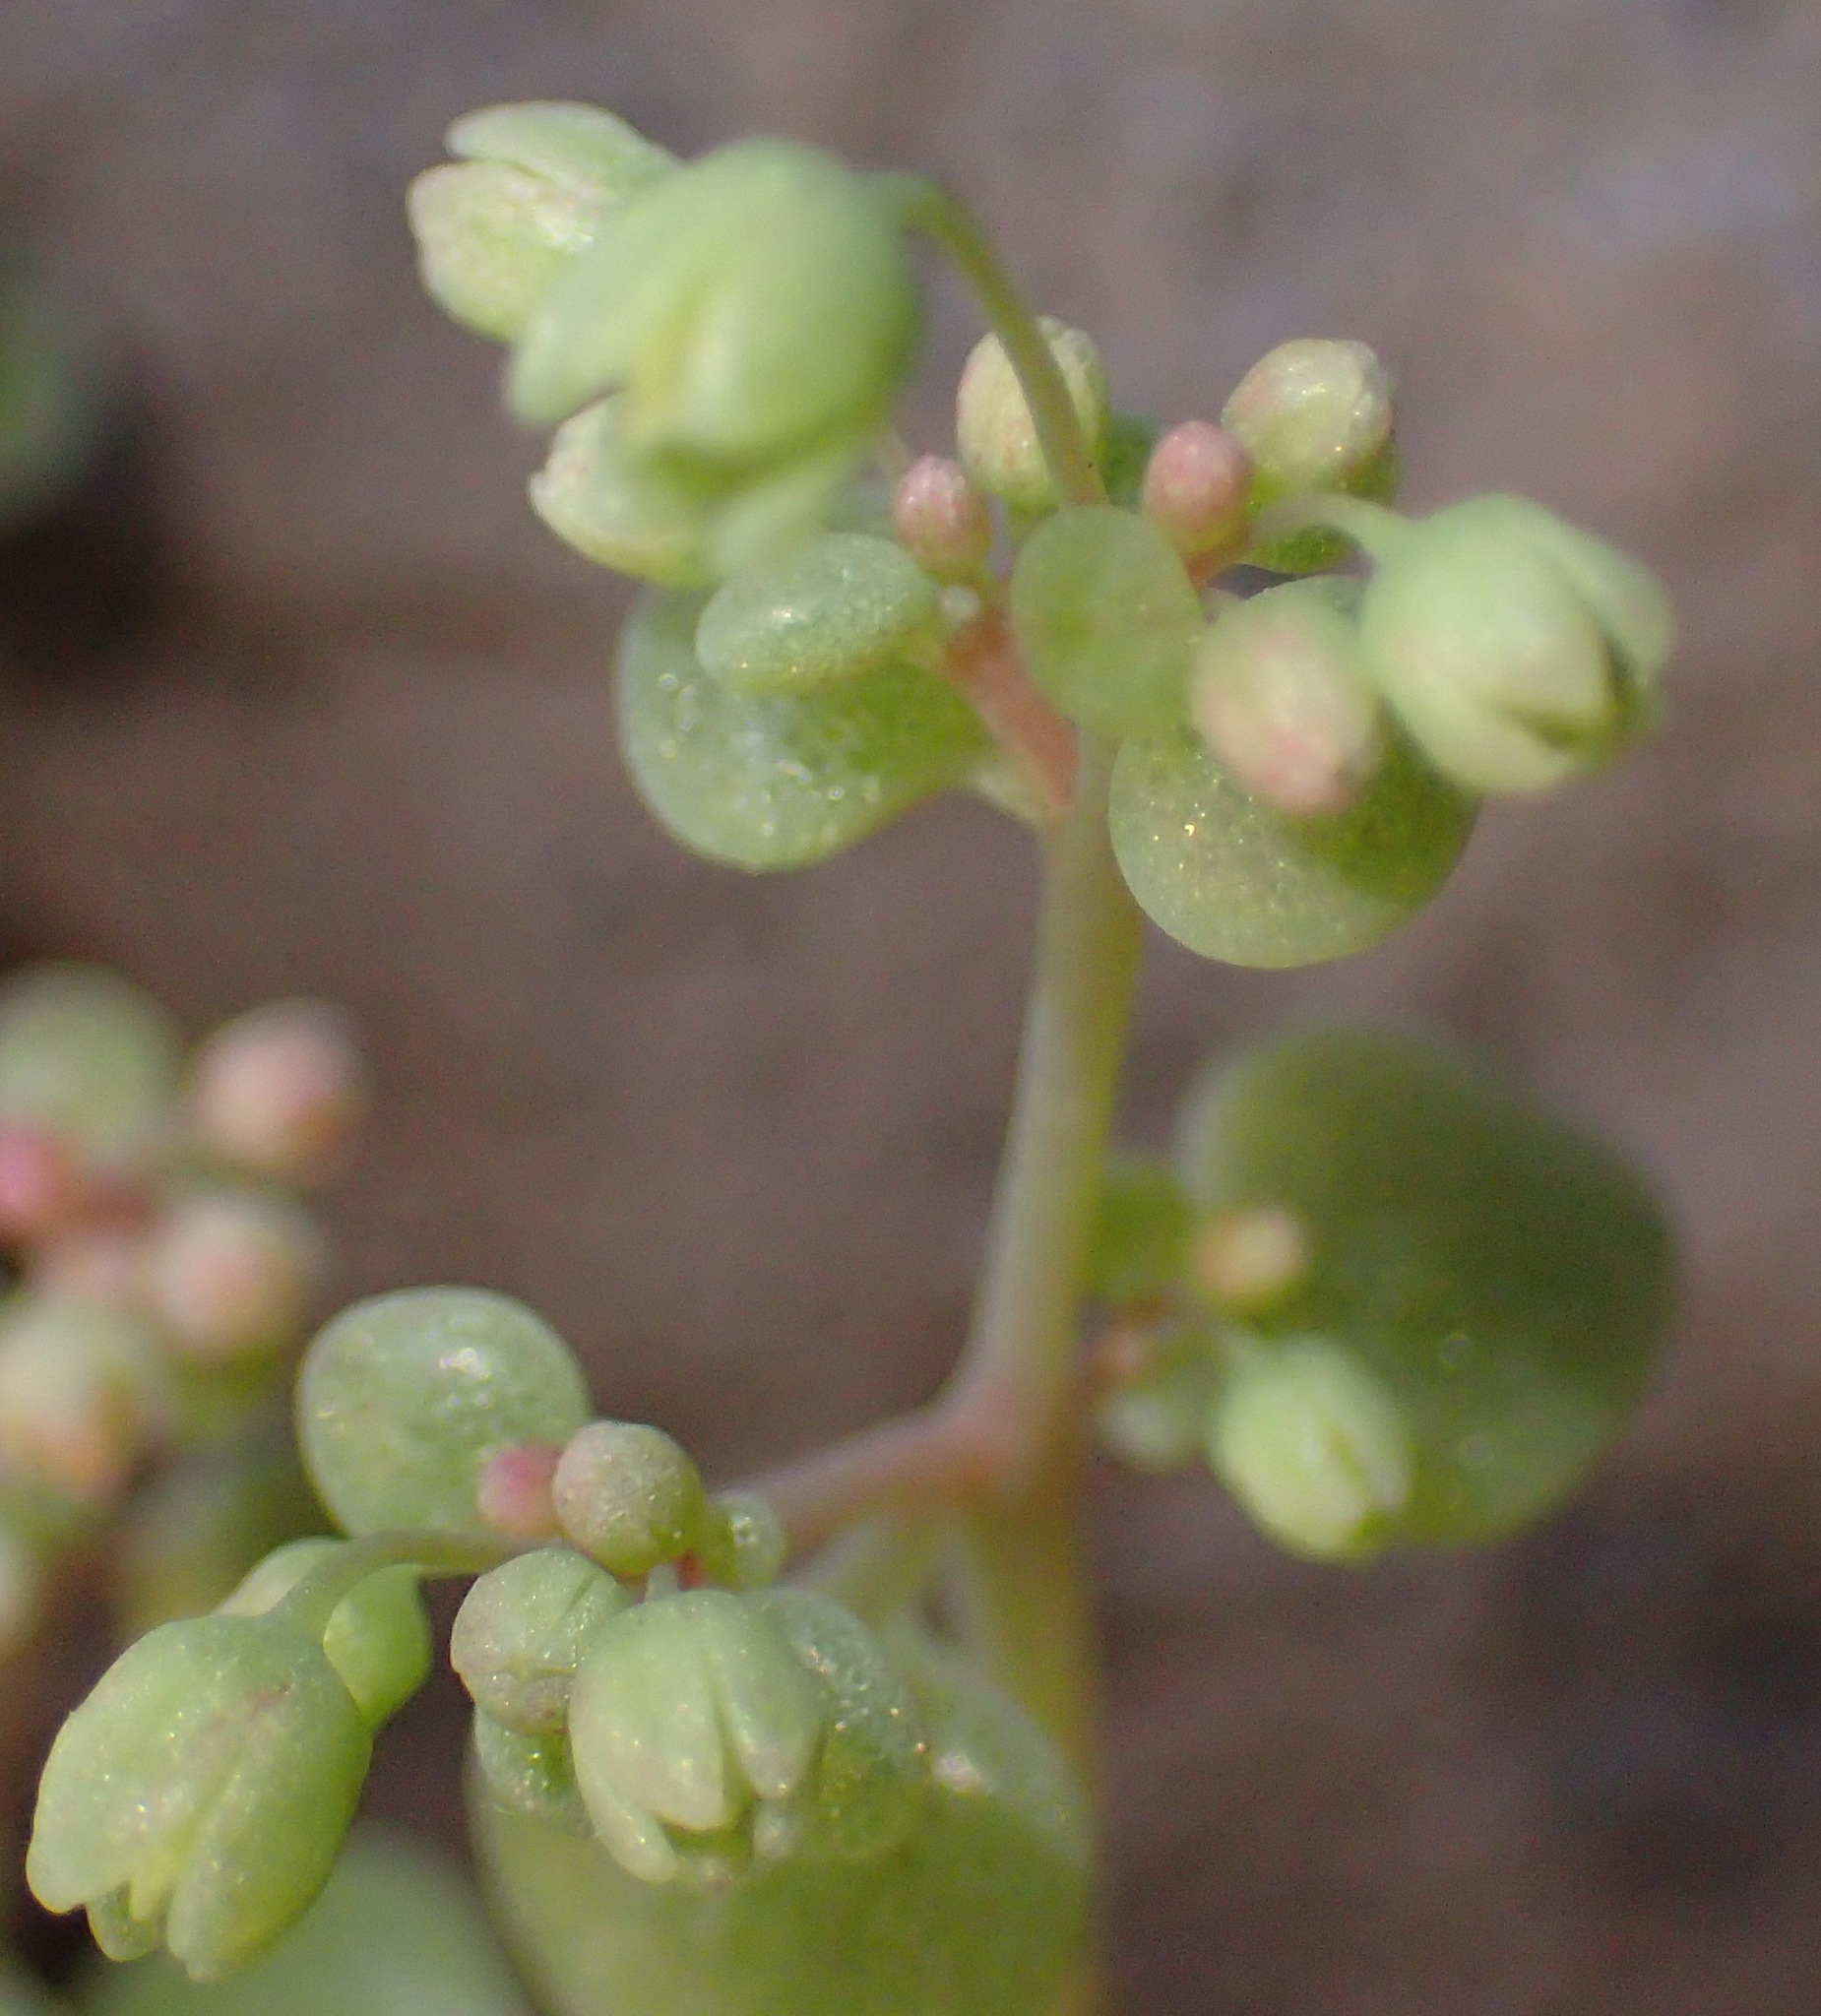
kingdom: Plantae
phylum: Tracheophyta
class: Magnoliopsida
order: Saxifragales
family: Crassulaceae
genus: Crassula
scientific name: Crassula nemorosa
